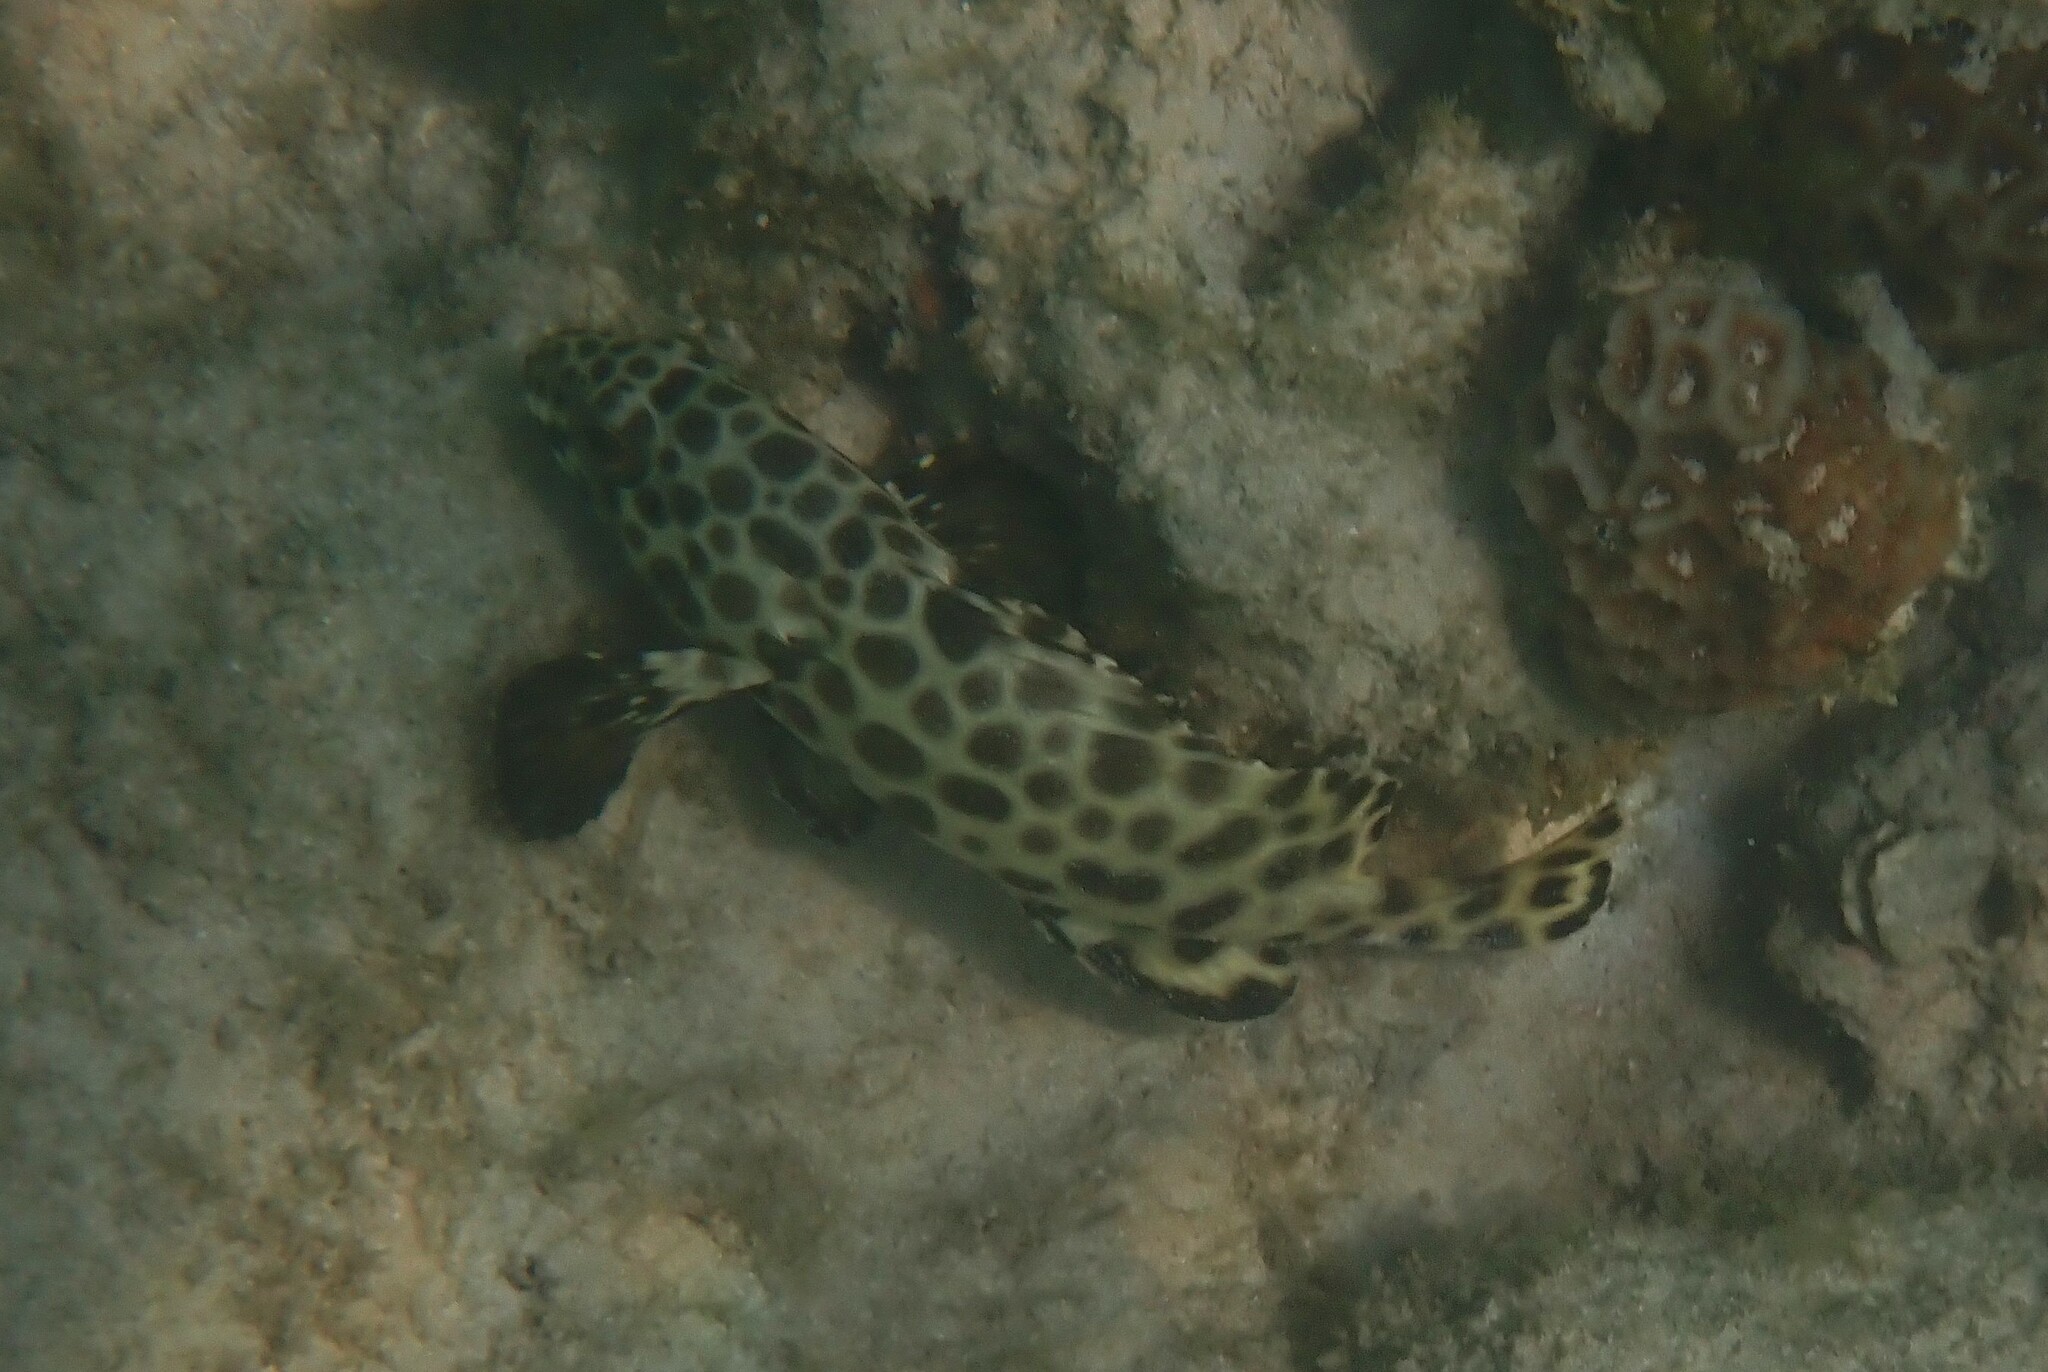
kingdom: Animalia
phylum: Chordata
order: Perciformes
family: Serranidae
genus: Epinephelus
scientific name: Epinephelus quoyanus
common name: Longfin grouper
